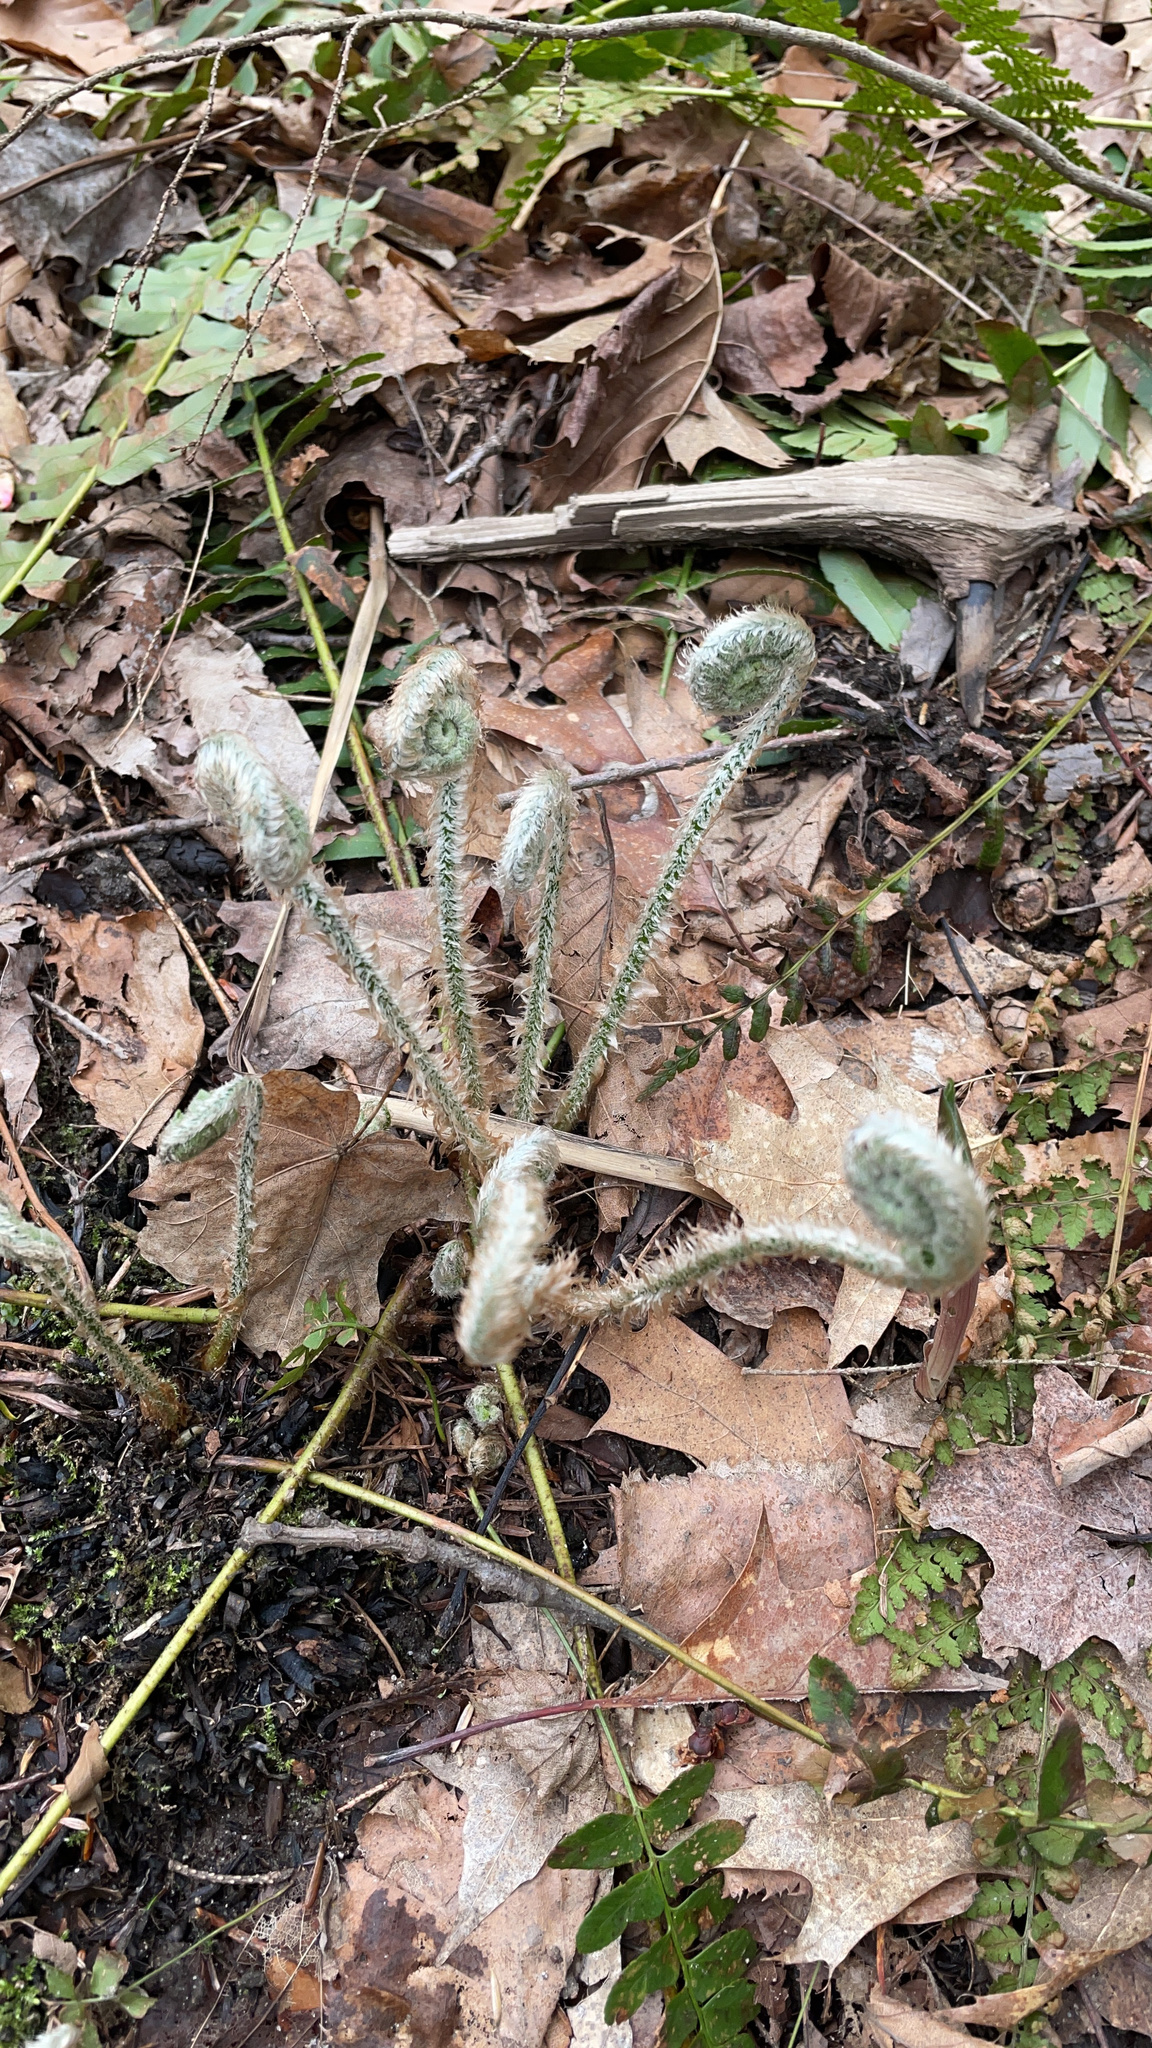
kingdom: Plantae
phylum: Tracheophyta
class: Polypodiopsida
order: Polypodiales
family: Dryopteridaceae
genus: Polystichum
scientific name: Polystichum acrostichoides
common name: Christmas fern
